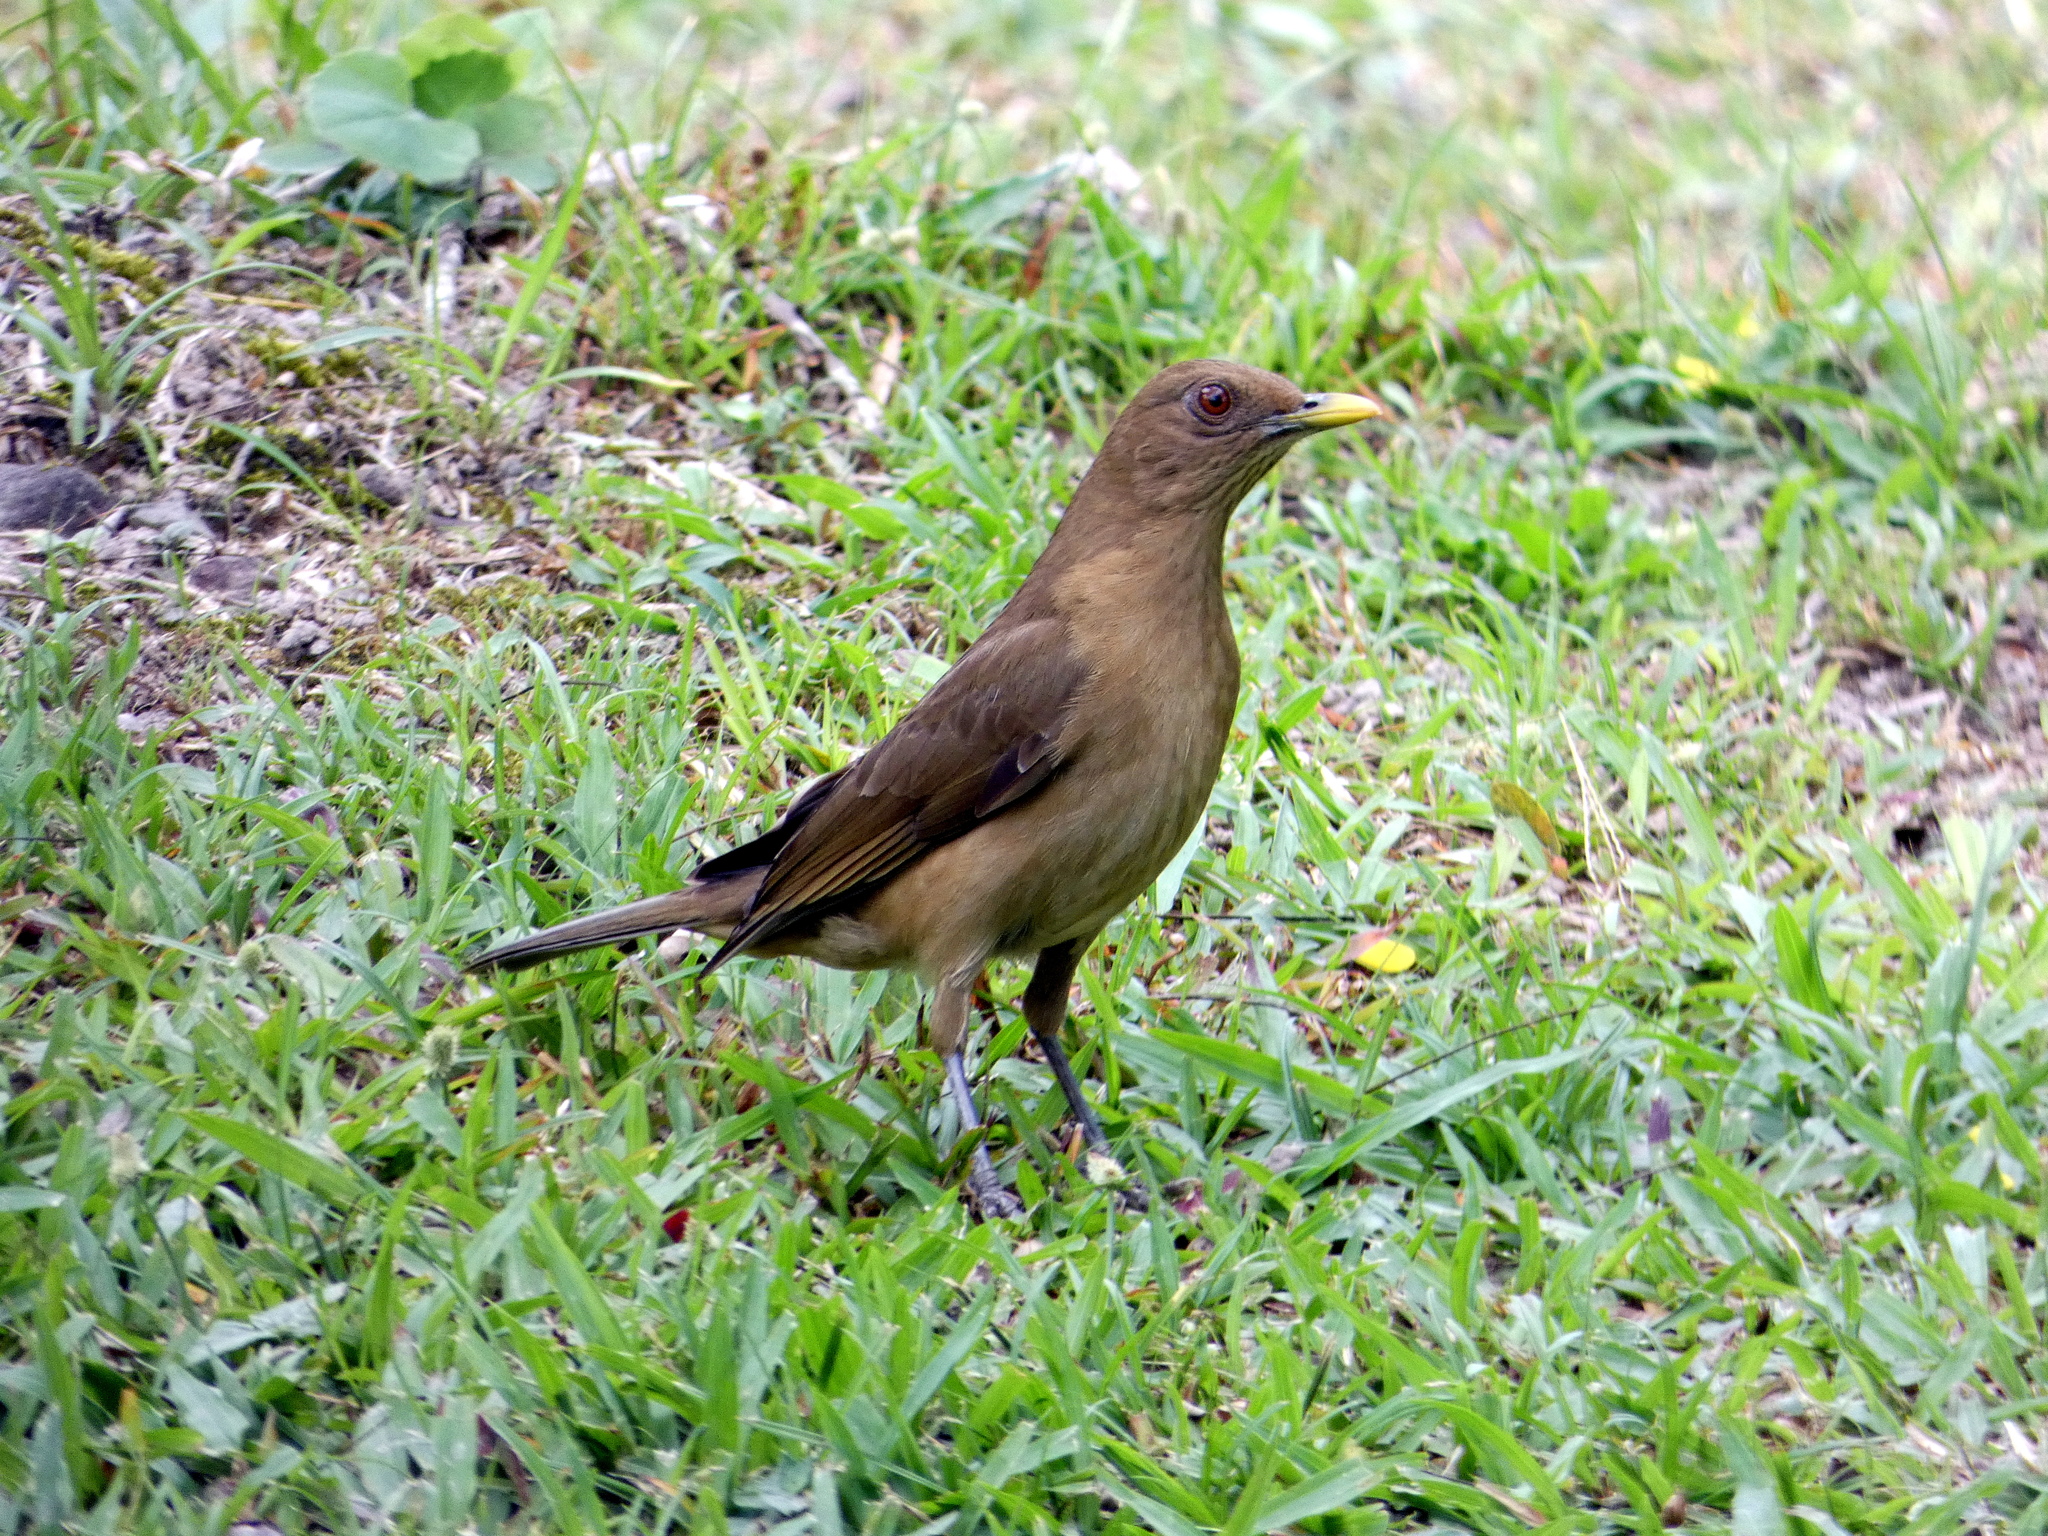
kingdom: Animalia
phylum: Chordata
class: Aves
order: Passeriformes
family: Turdidae
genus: Turdus
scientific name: Turdus grayi
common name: Clay-colored thrush
